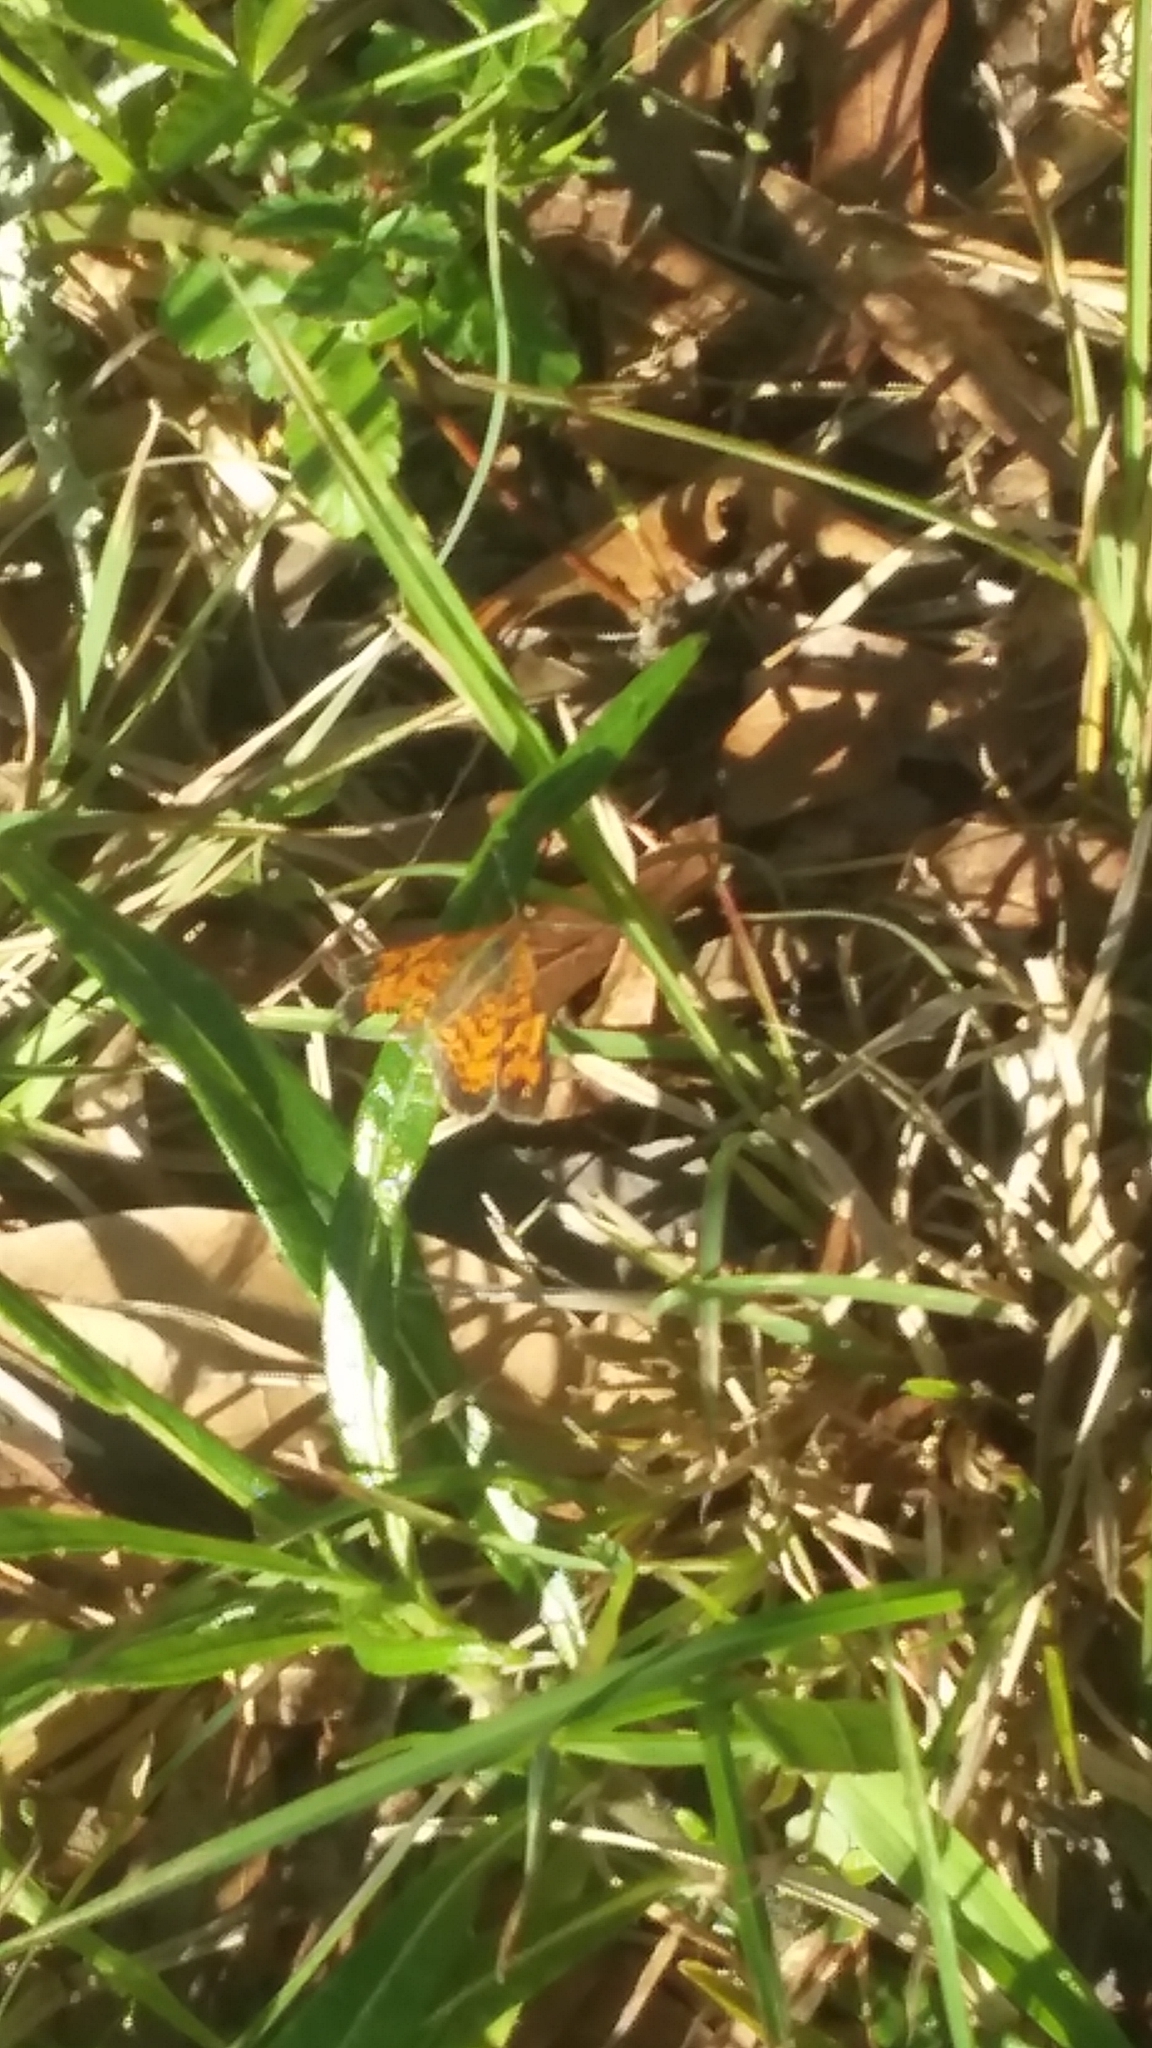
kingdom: Animalia
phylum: Arthropoda
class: Insecta
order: Lepidoptera
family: Nymphalidae
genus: Phyciodes
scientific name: Phyciodes tharos
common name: Pearl crescent
